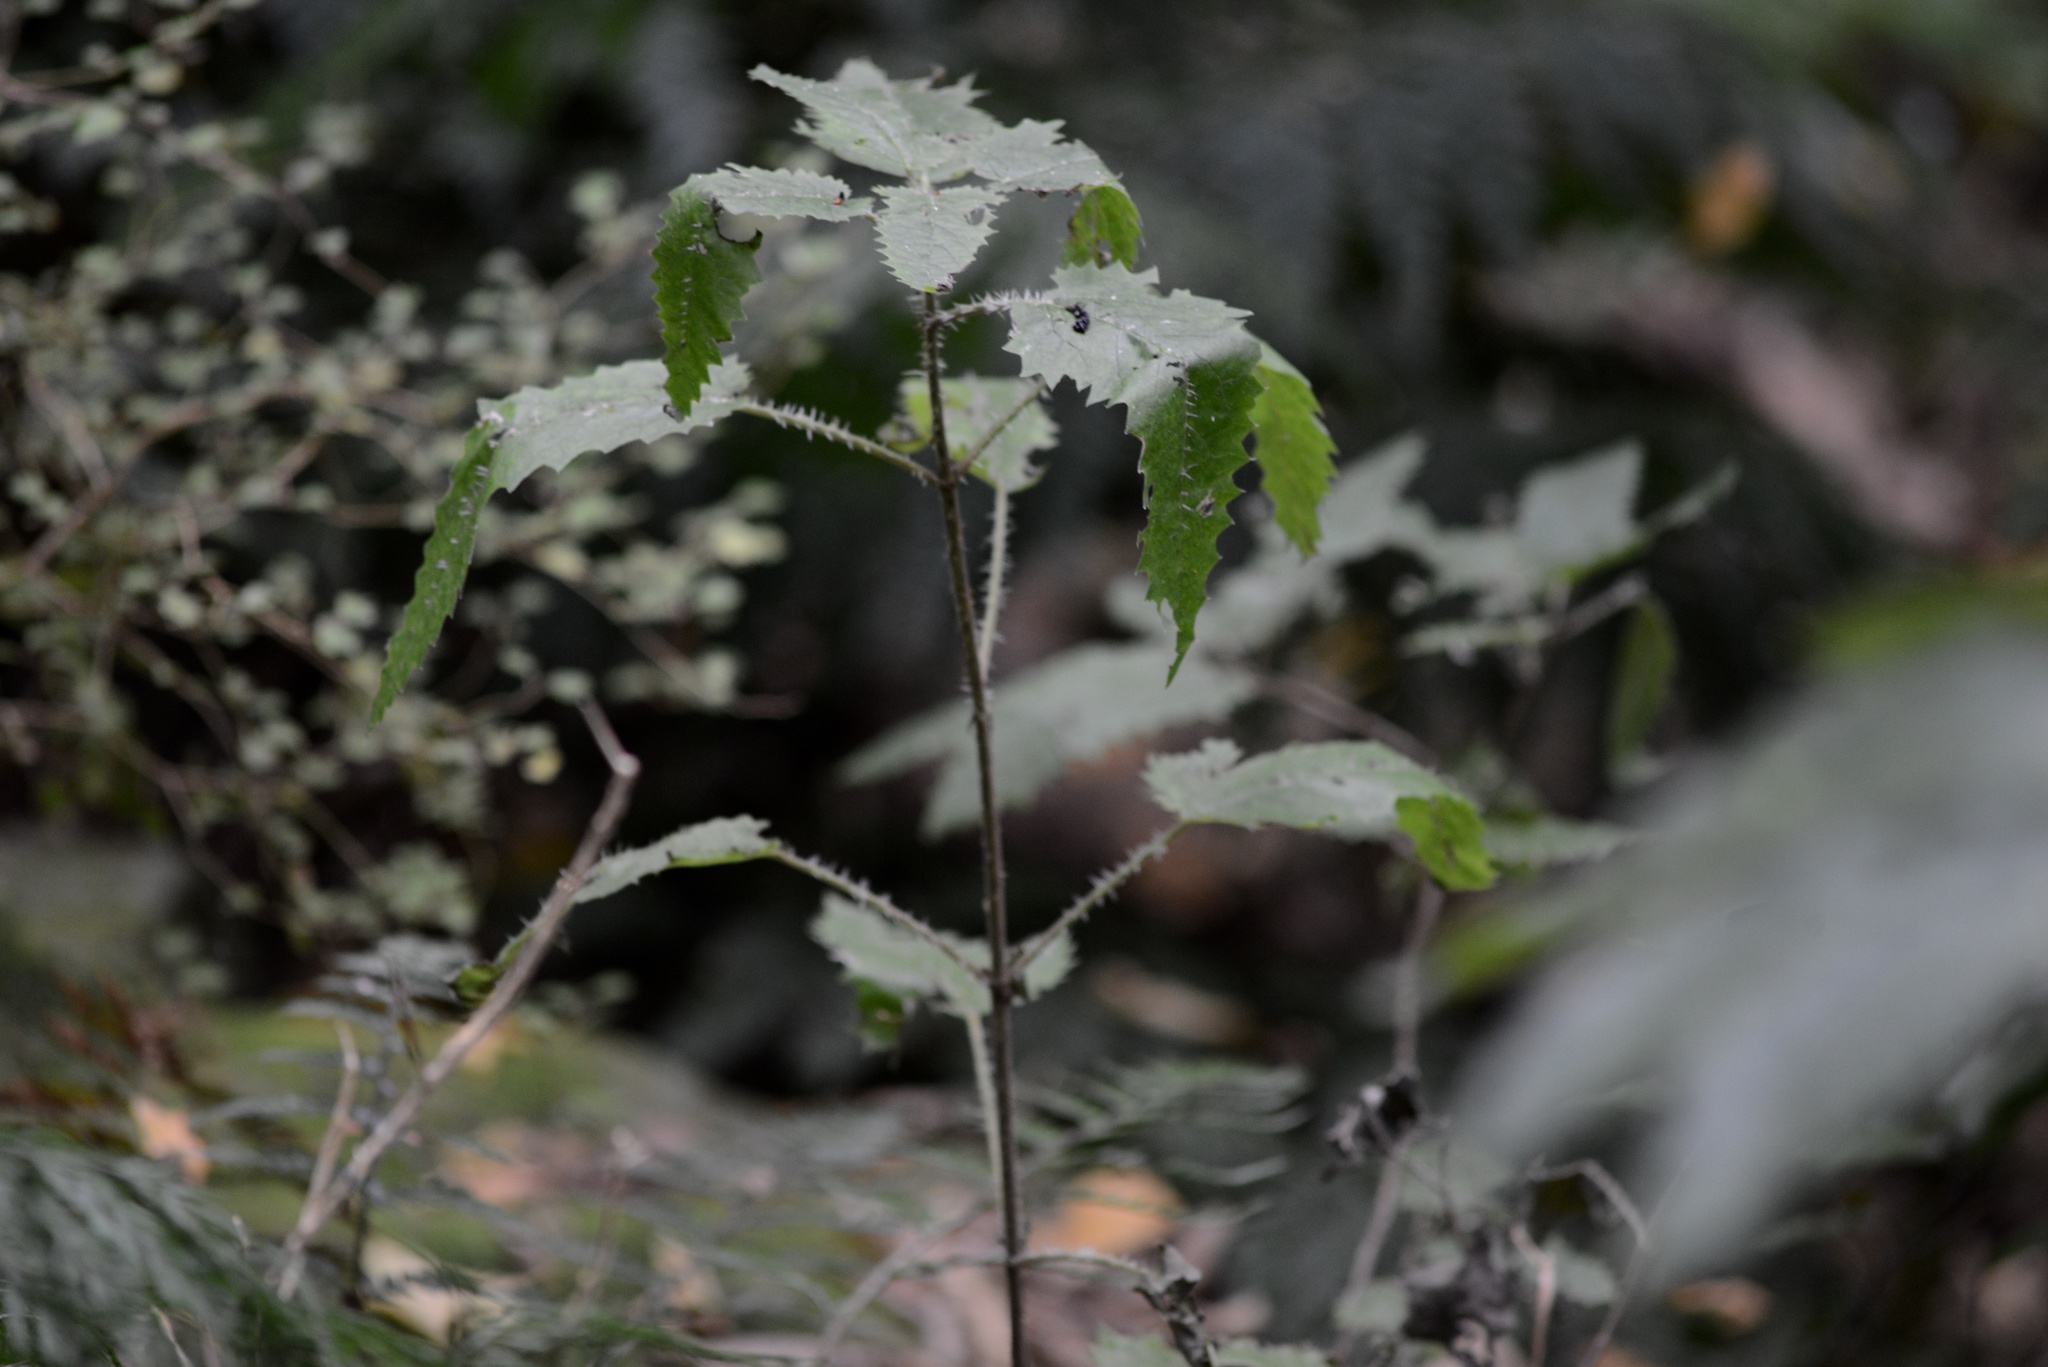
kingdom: Plantae
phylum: Tracheophyta
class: Magnoliopsida
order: Rosales
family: Urticaceae
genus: Urtica
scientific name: Urtica ferox
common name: Tree nettle
